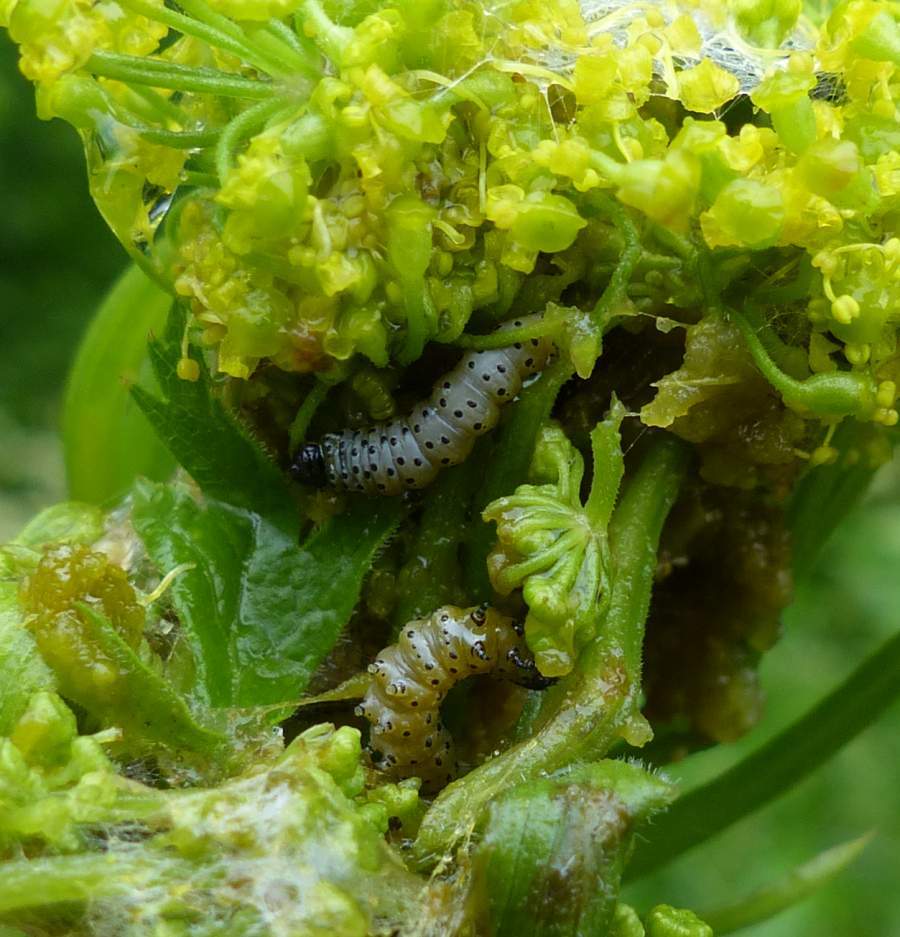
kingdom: Animalia
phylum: Arthropoda
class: Insecta
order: Lepidoptera
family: Depressariidae
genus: Depressaria
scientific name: Depressaria radiella
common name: Parsnip moth
